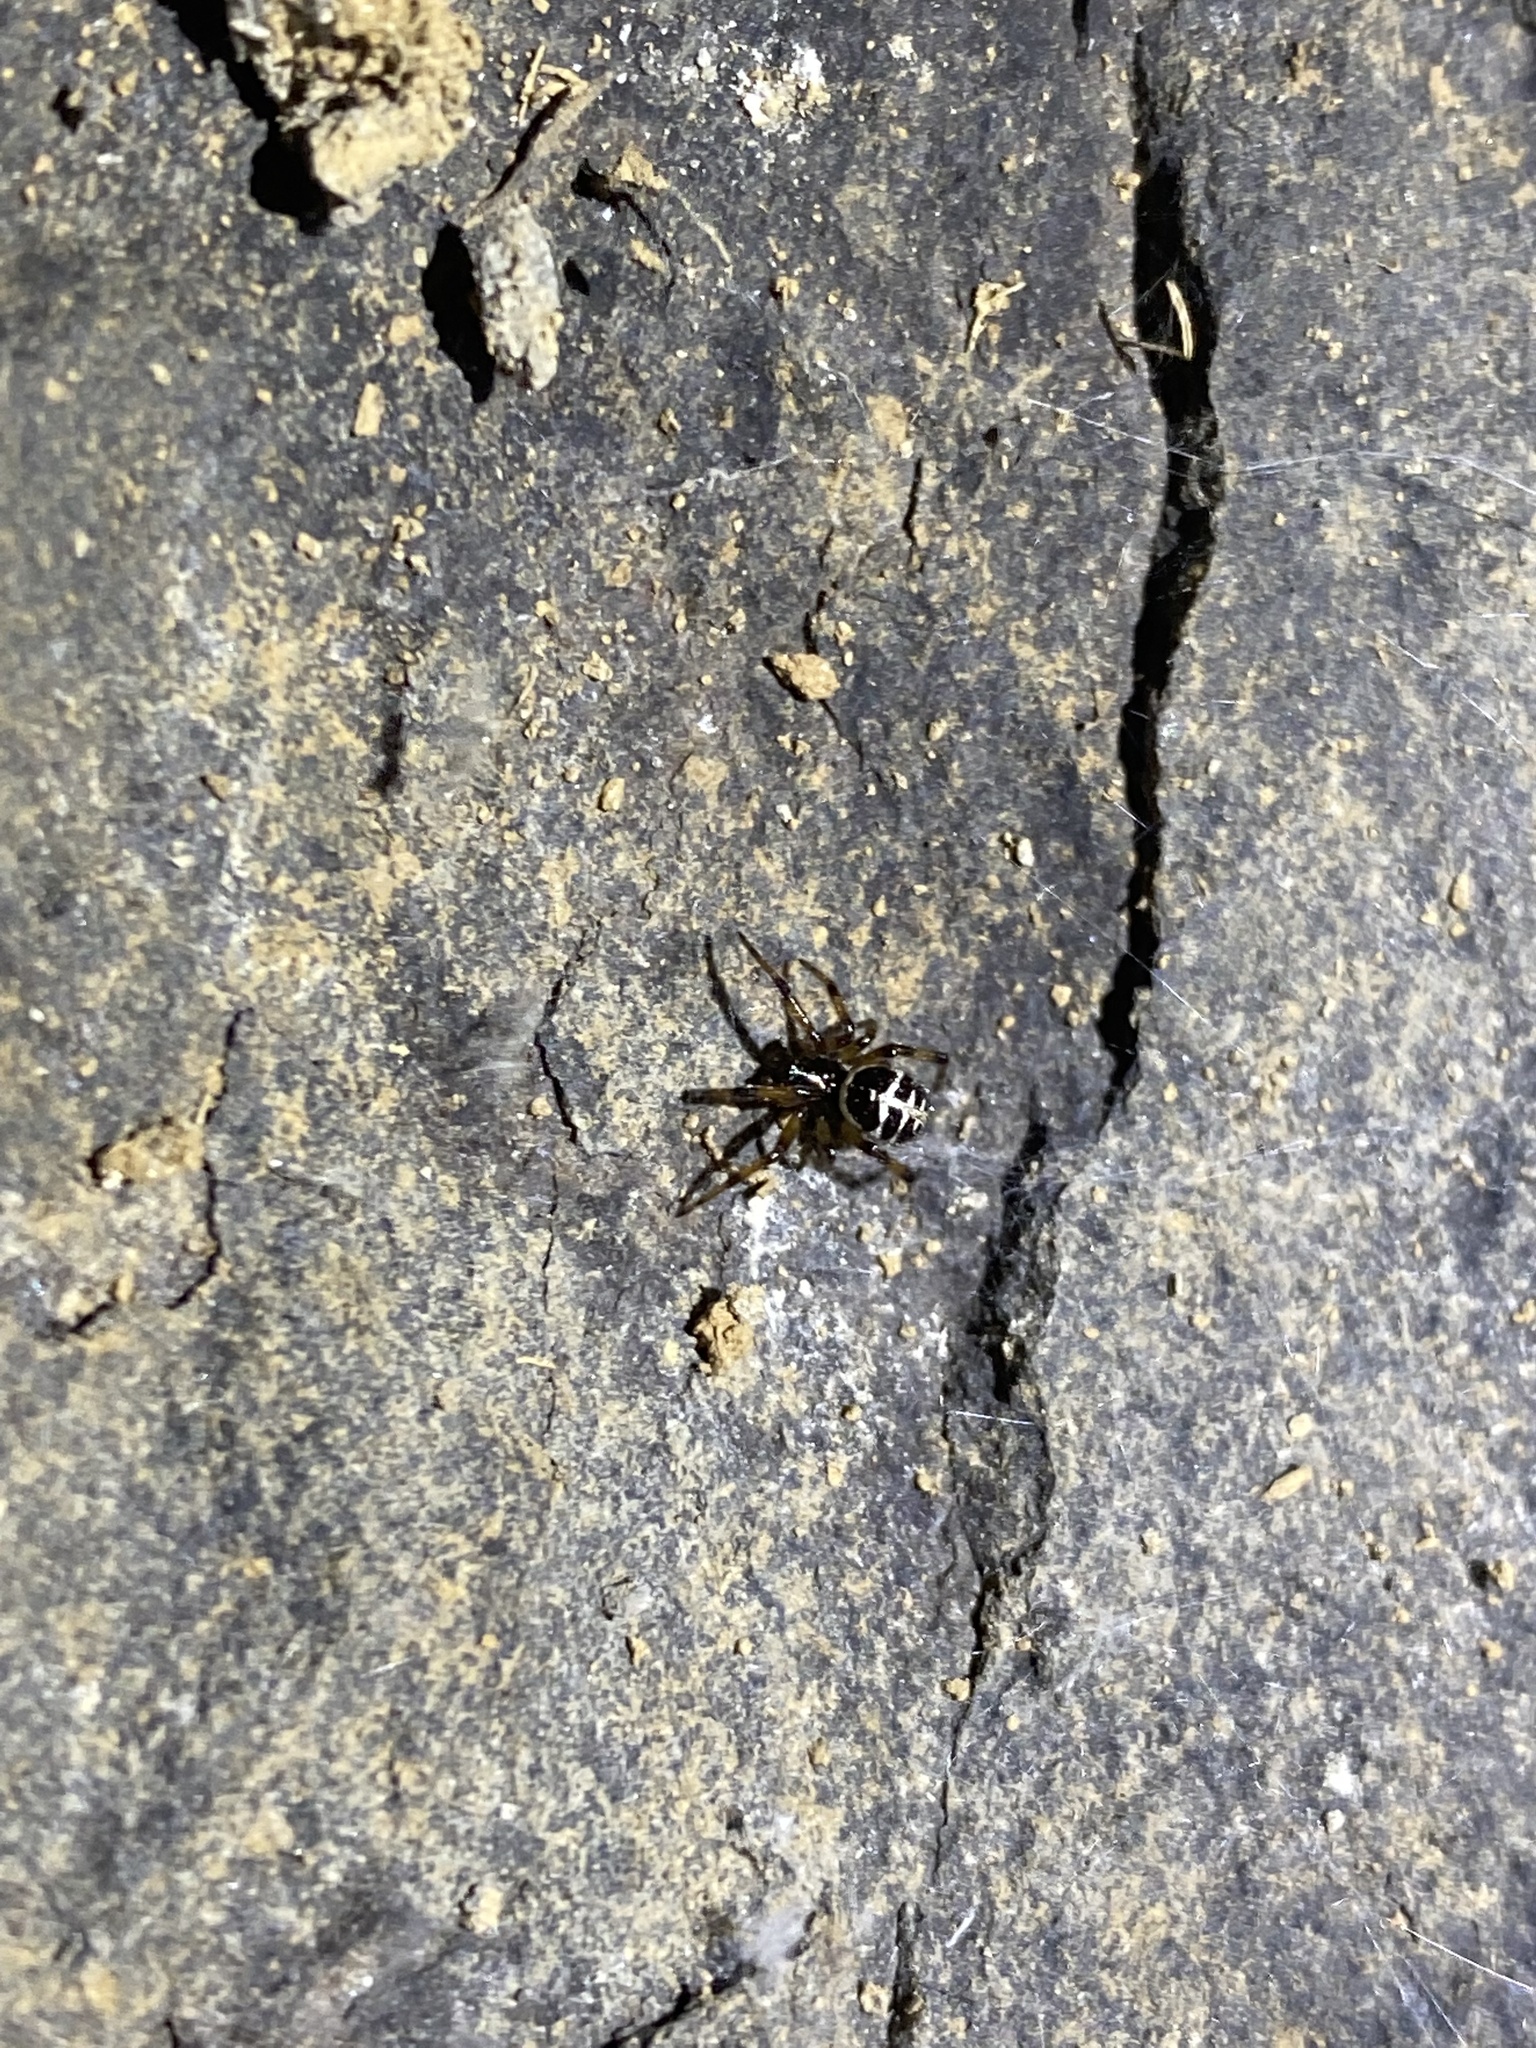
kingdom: Animalia
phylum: Arthropoda
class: Arachnida
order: Araneae
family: Theridiidae
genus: Steatoda
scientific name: Steatoda paykulliana
